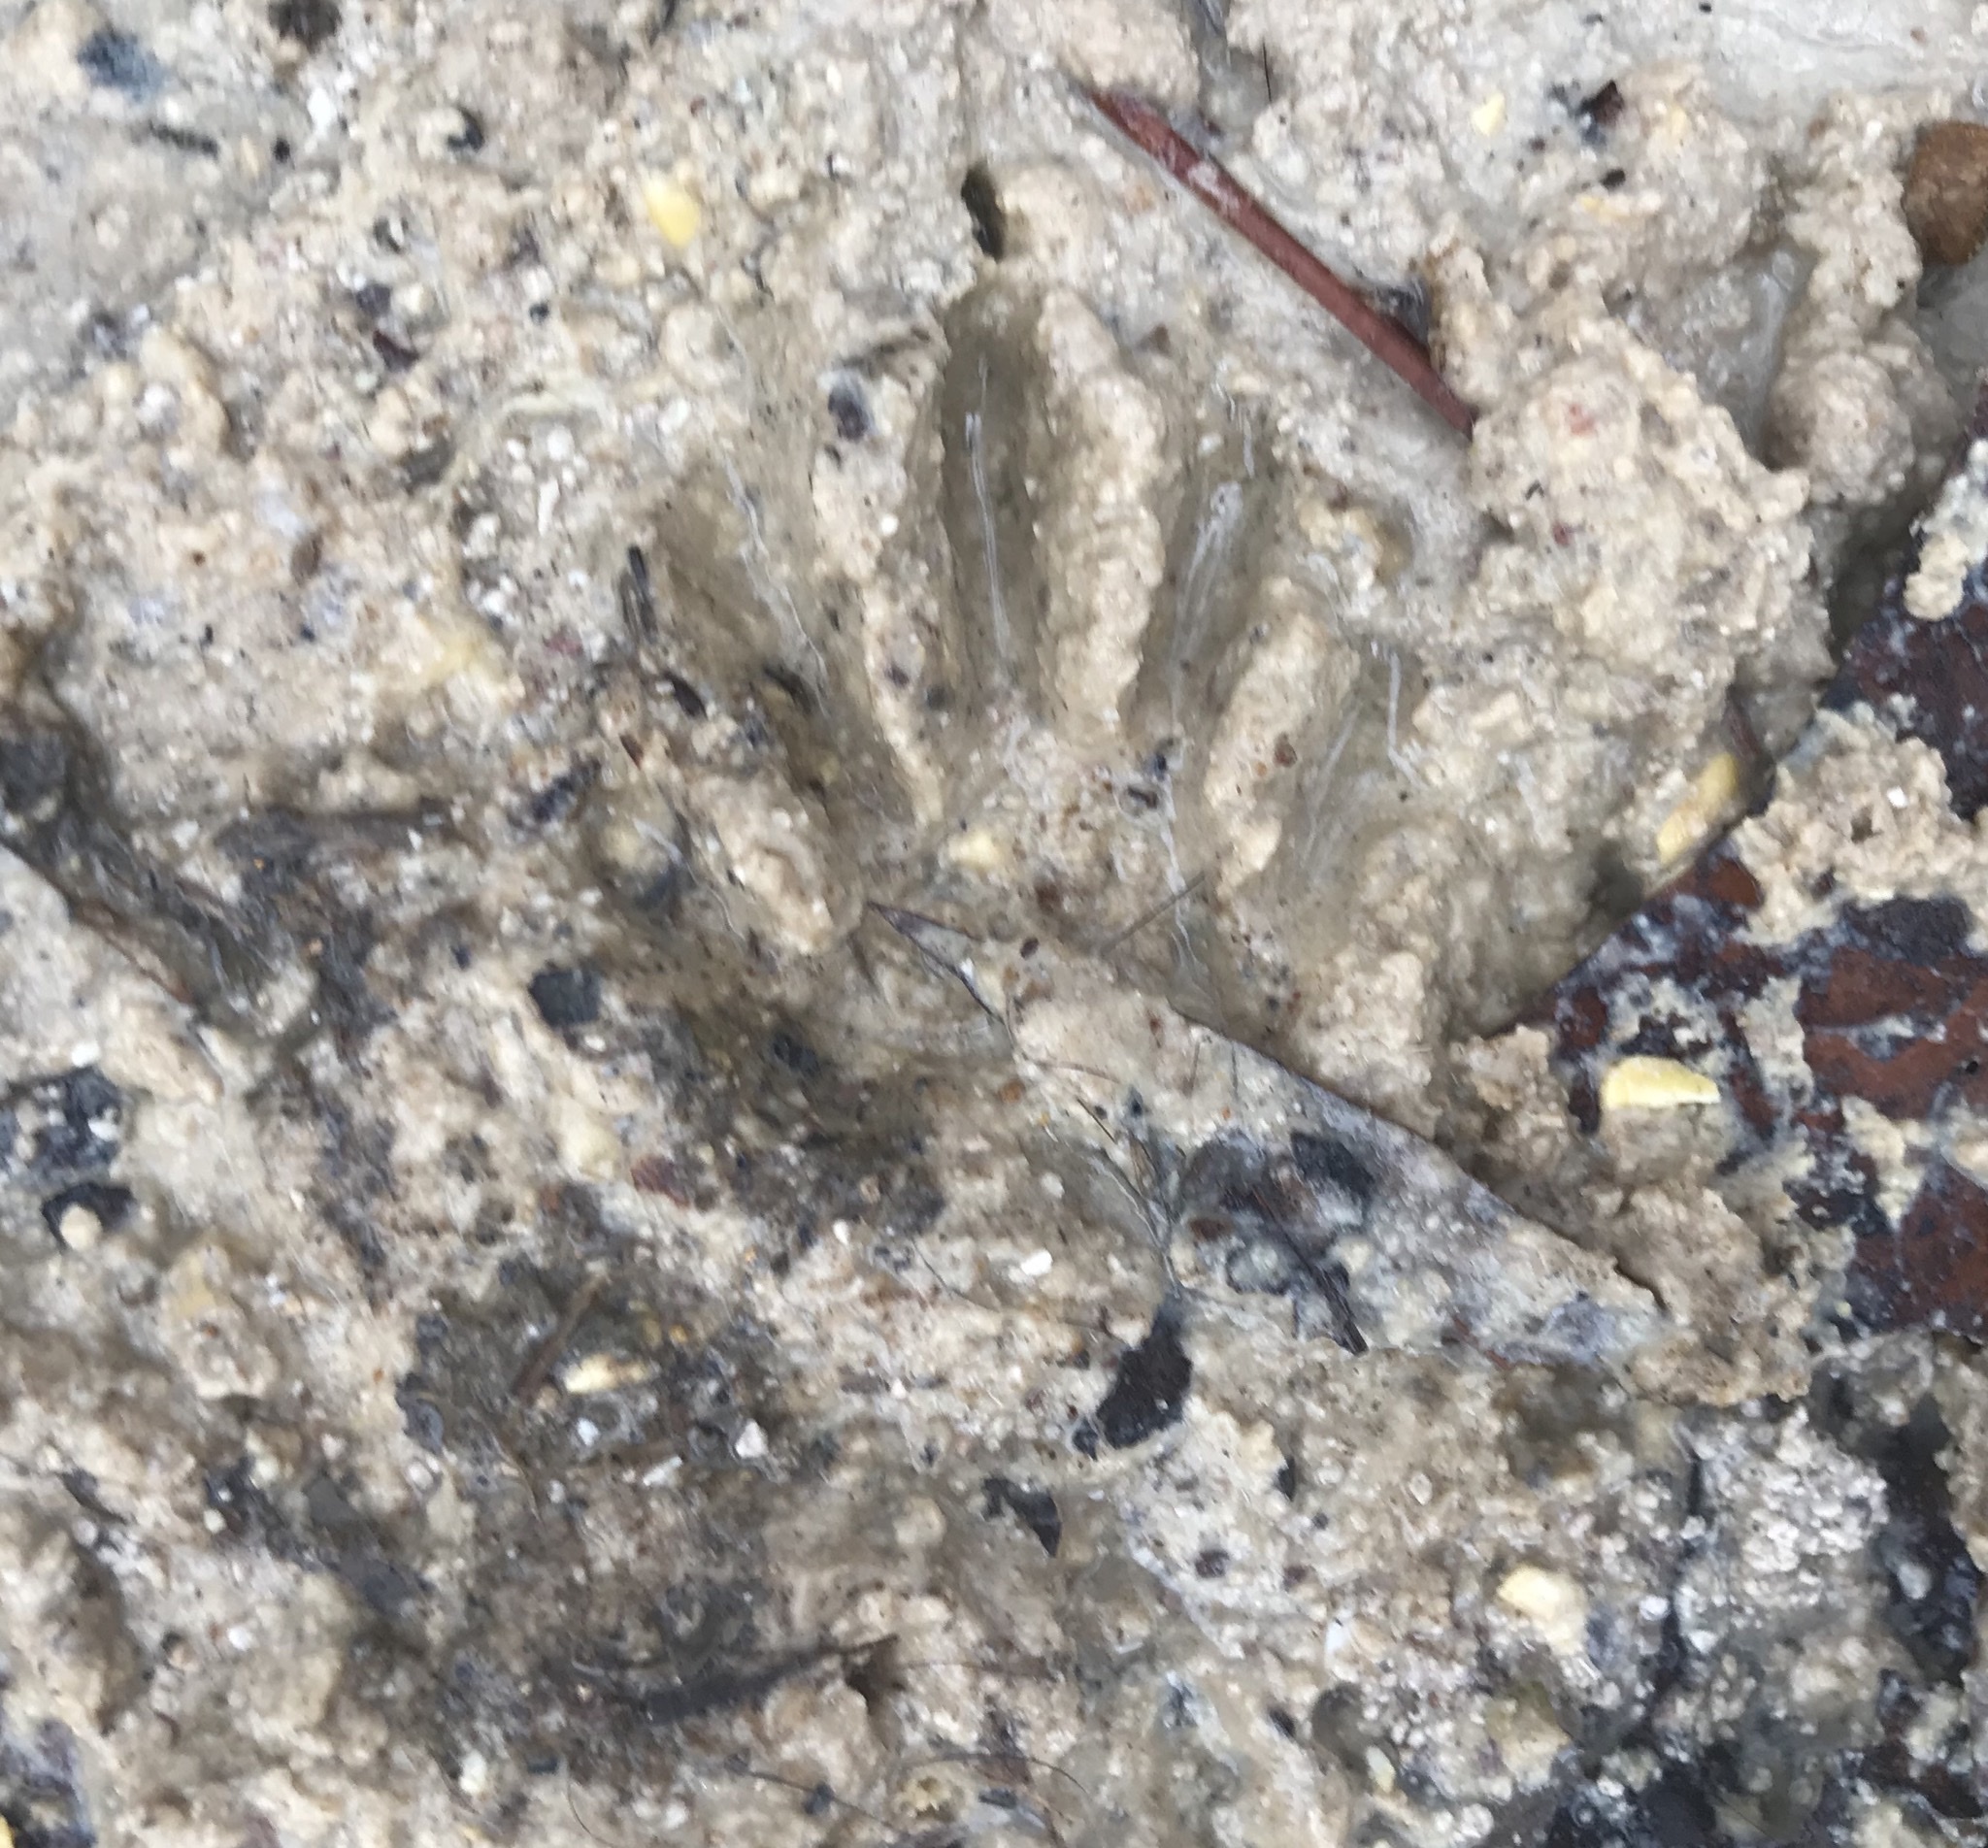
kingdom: Animalia
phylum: Chordata
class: Mammalia
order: Carnivora
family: Procyonidae
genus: Procyon
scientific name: Procyon lotor
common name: Raccoon
